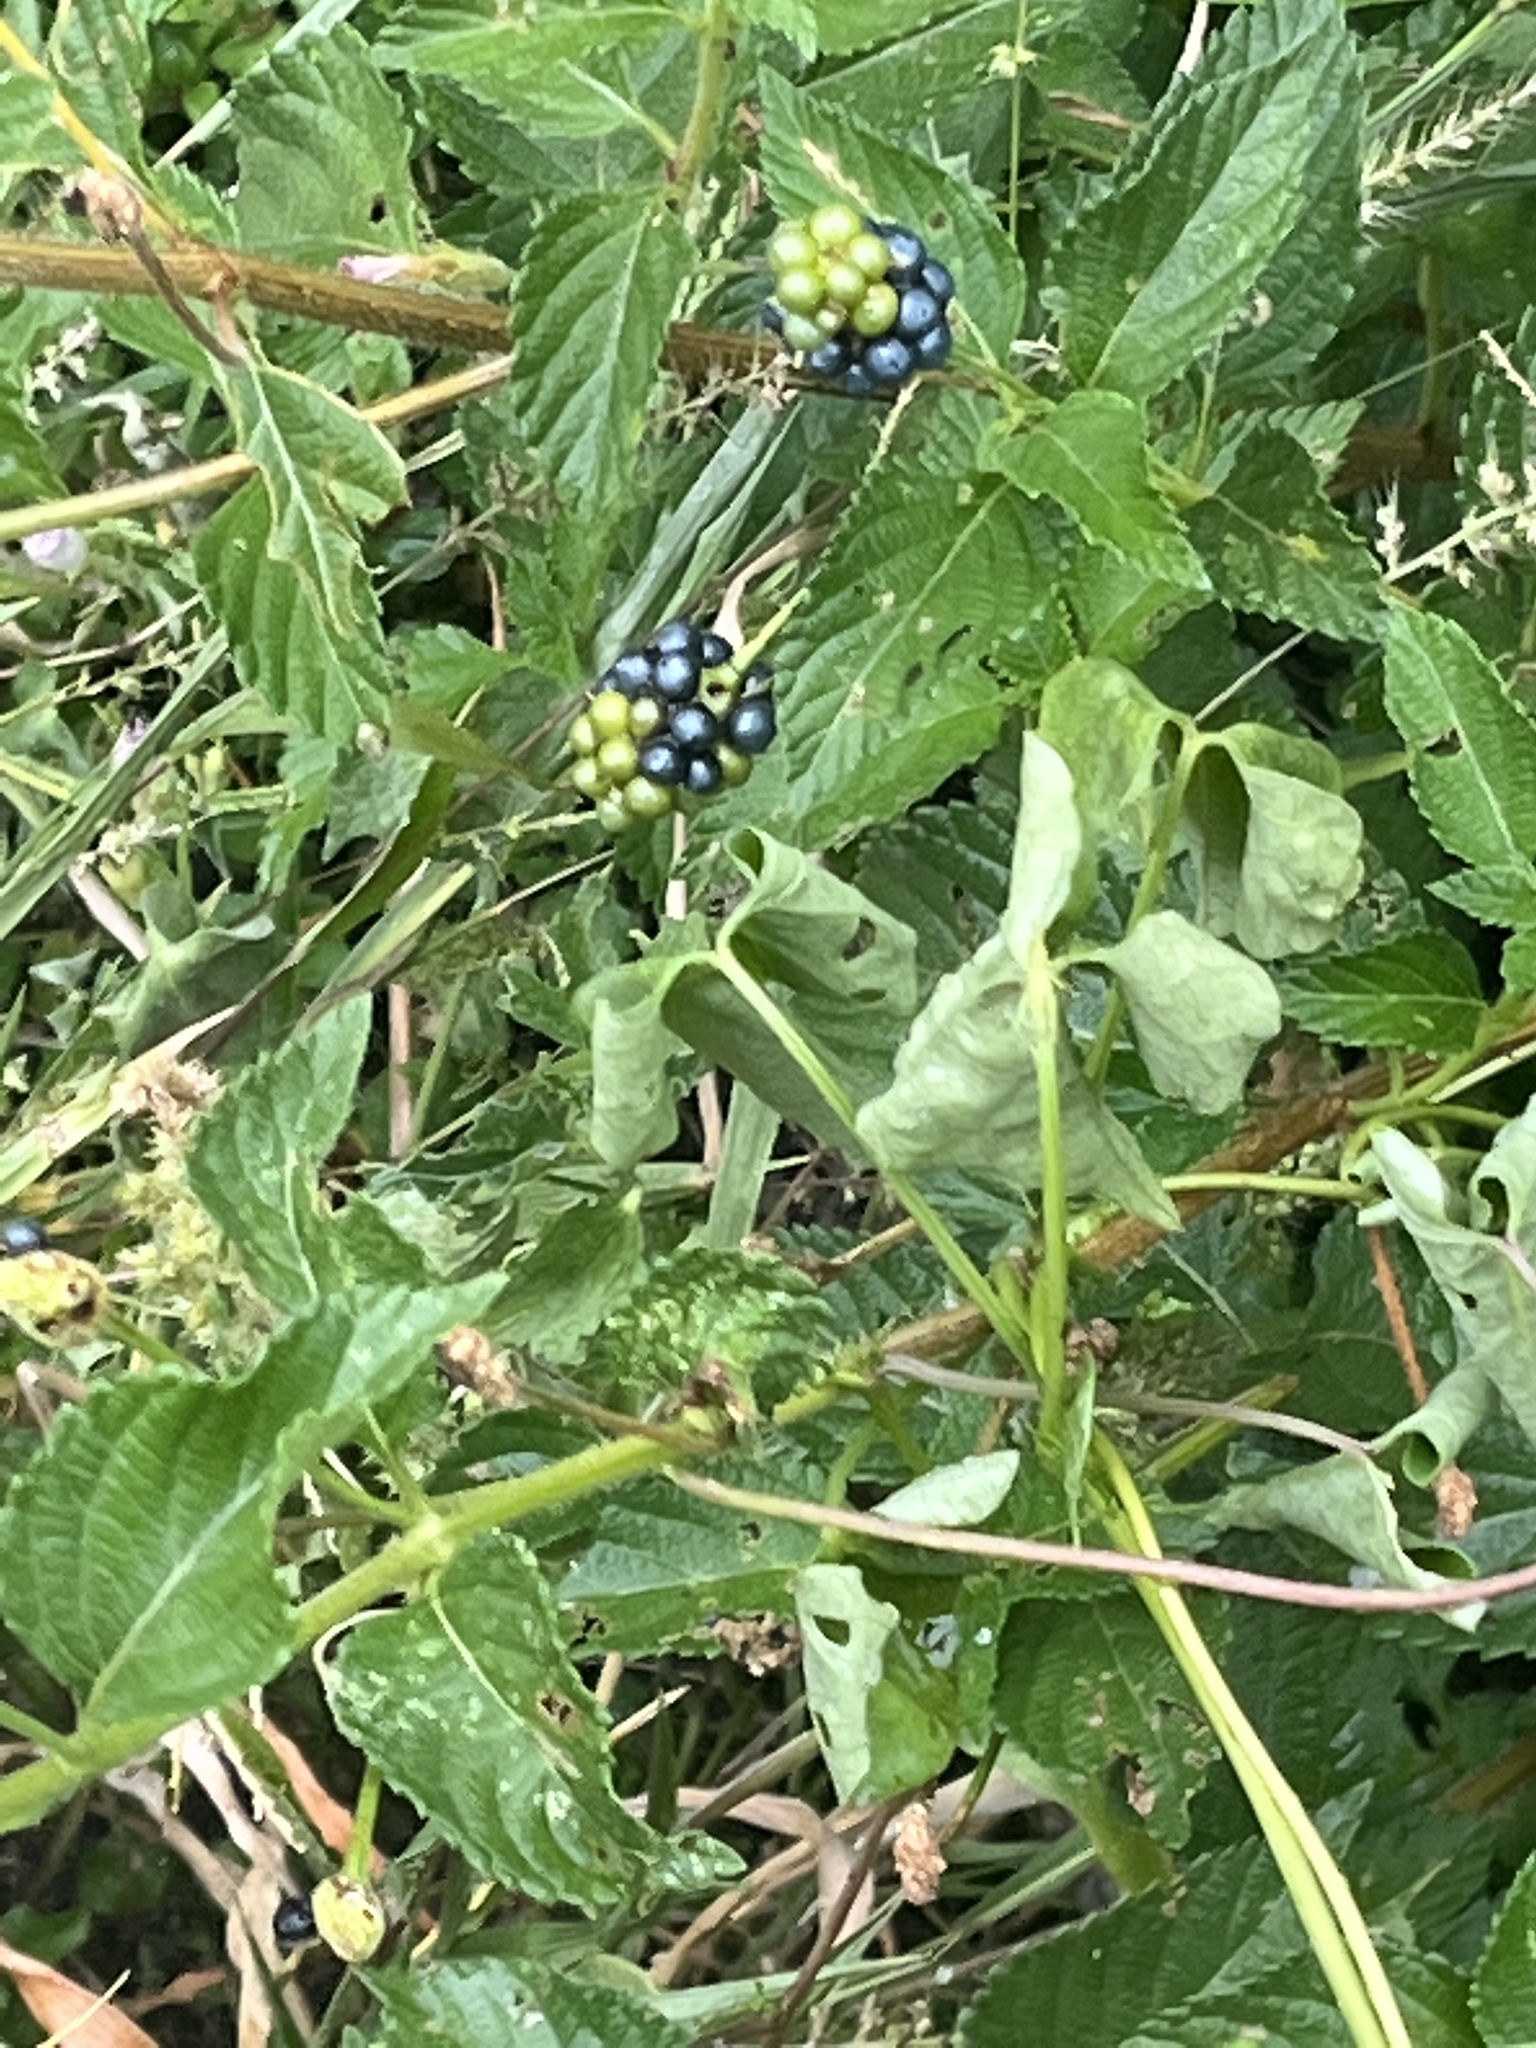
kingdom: Plantae
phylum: Tracheophyta
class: Magnoliopsida
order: Lamiales
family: Verbenaceae
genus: Lantana
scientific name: Lantana camara
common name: Lantana
